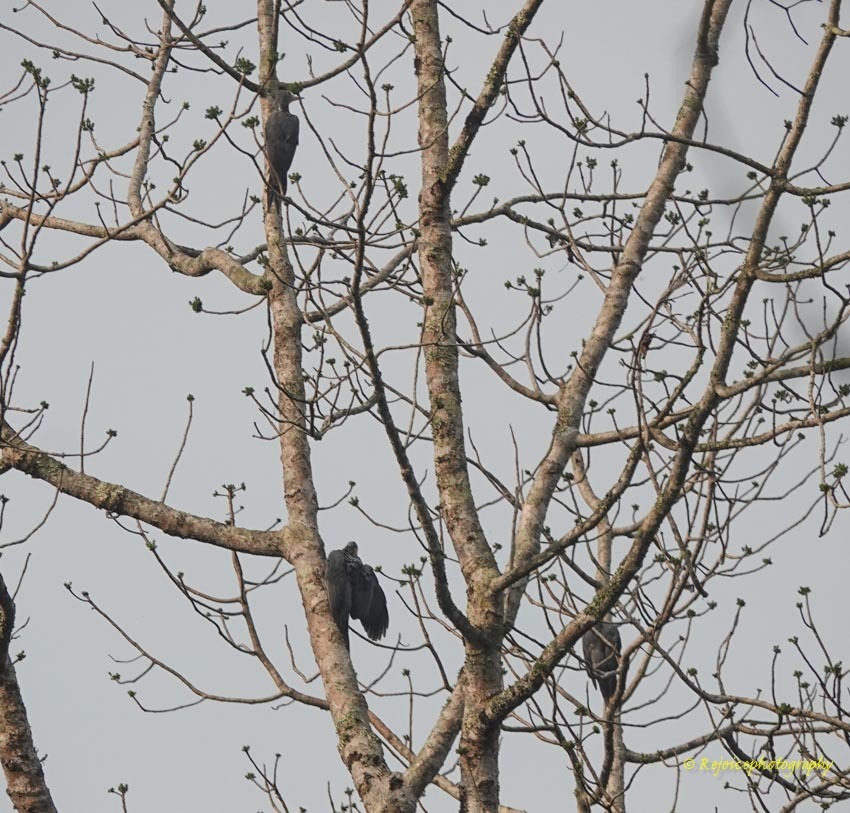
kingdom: Animalia
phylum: Chordata
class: Aves
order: Piciformes
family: Picidae
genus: Mulleripicus
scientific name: Mulleripicus pulverulentus
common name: Great slaty woodpecker
